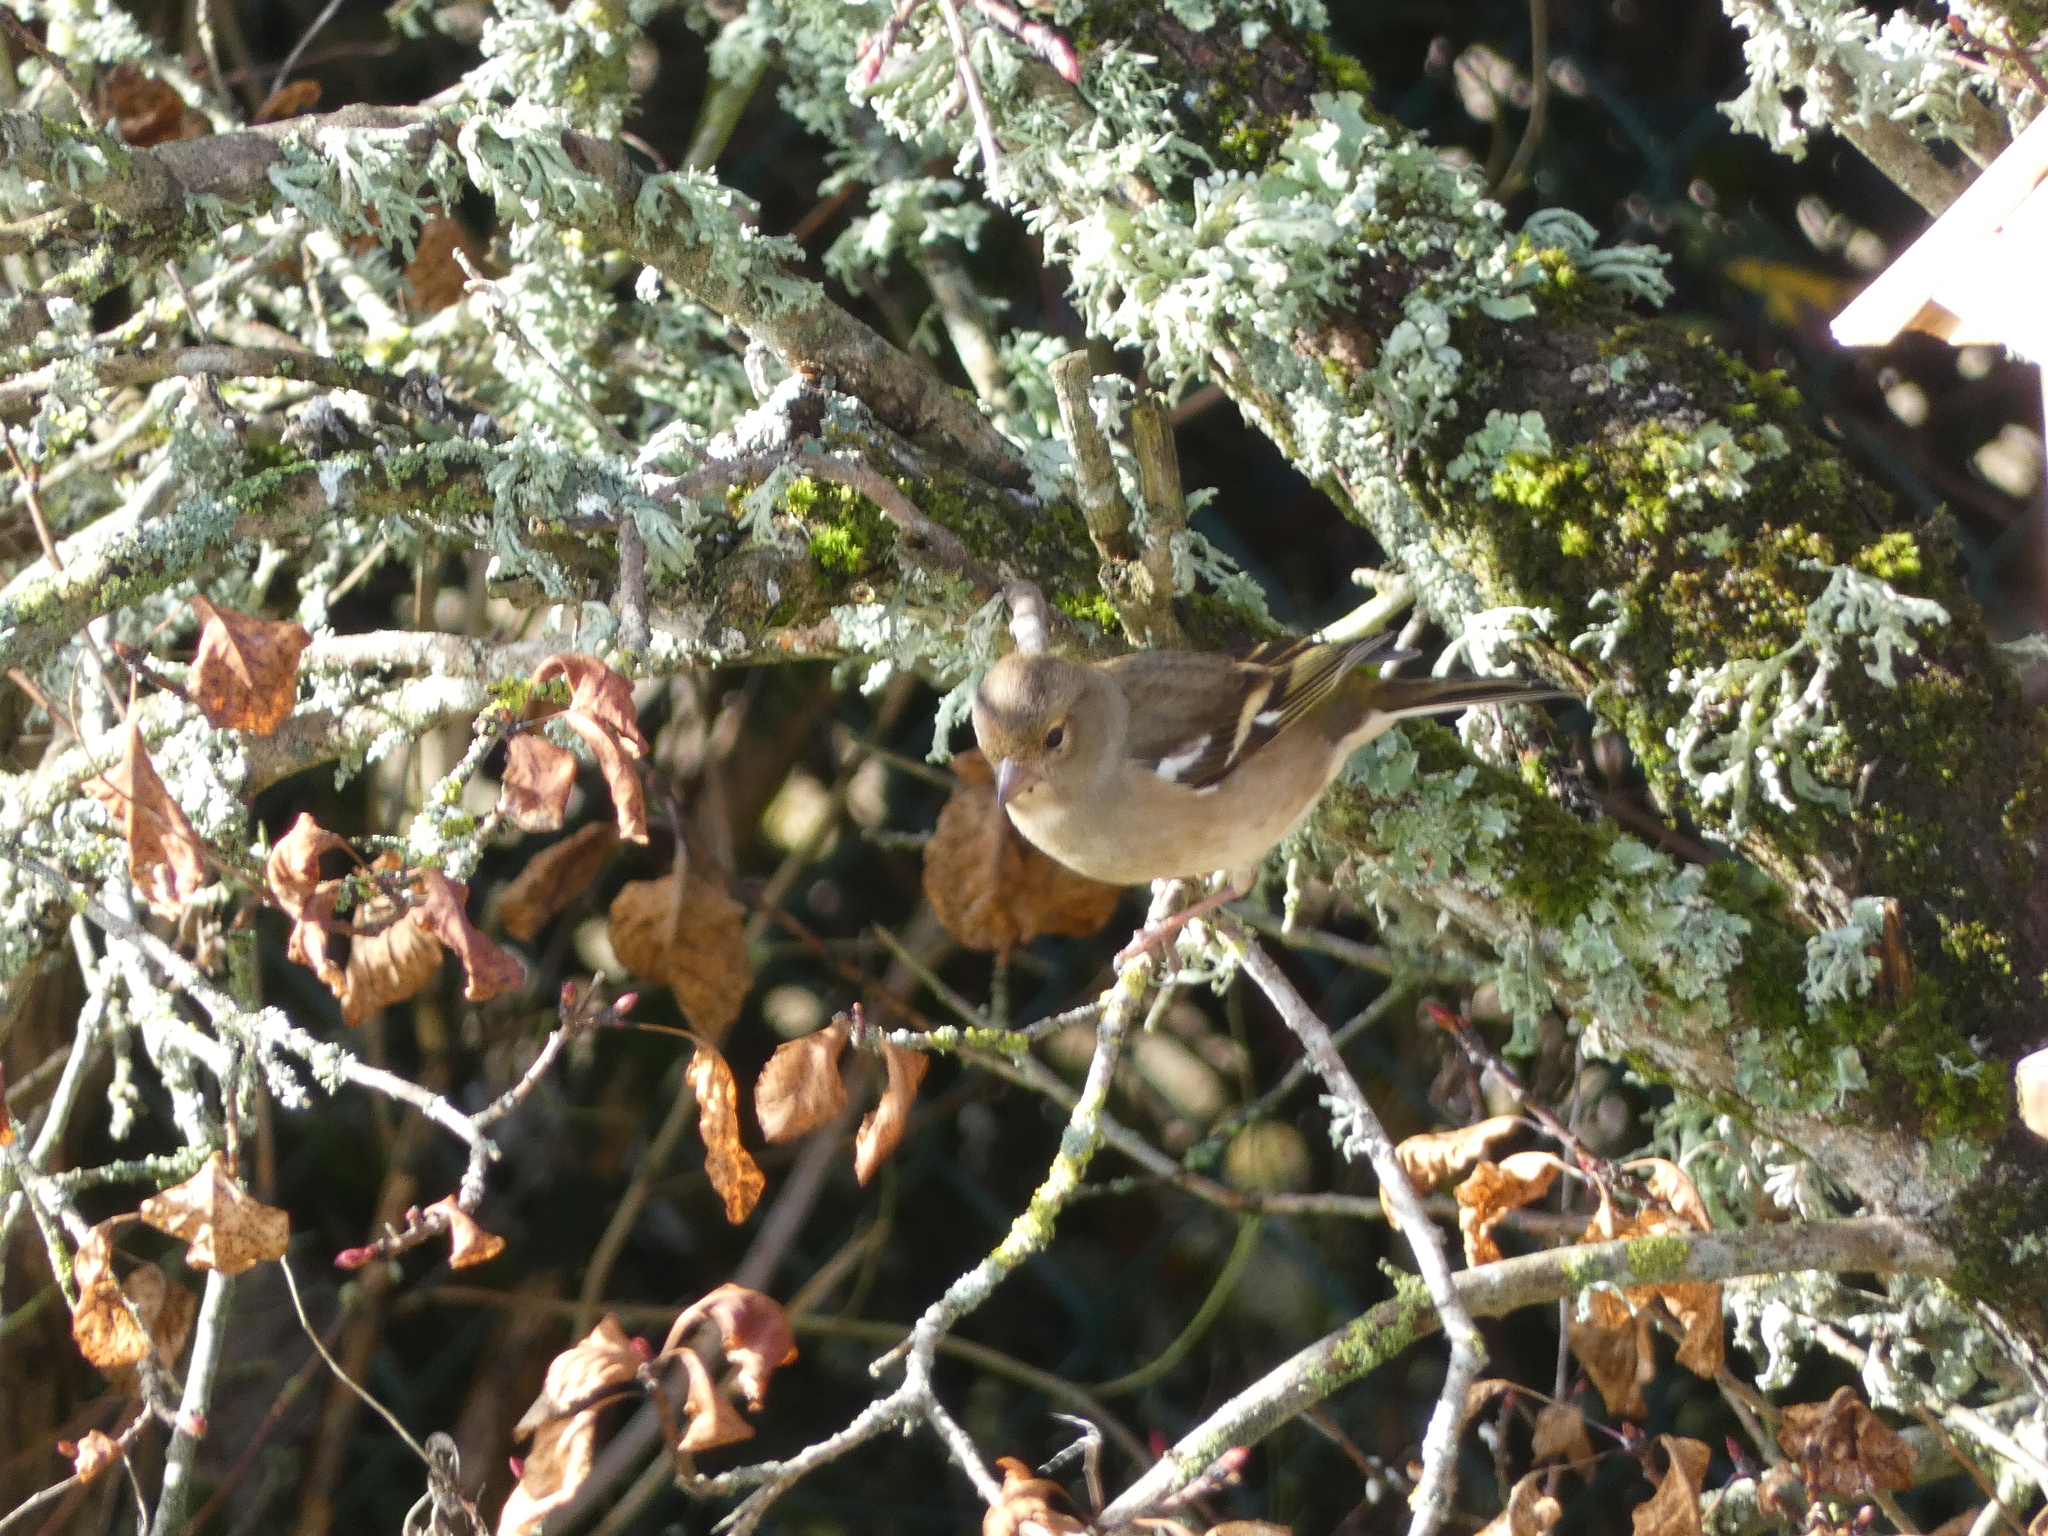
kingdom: Animalia
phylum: Chordata
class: Aves
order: Passeriformes
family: Fringillidae
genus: Fringilla
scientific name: Fringilla coelebs
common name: Common chaffinch
